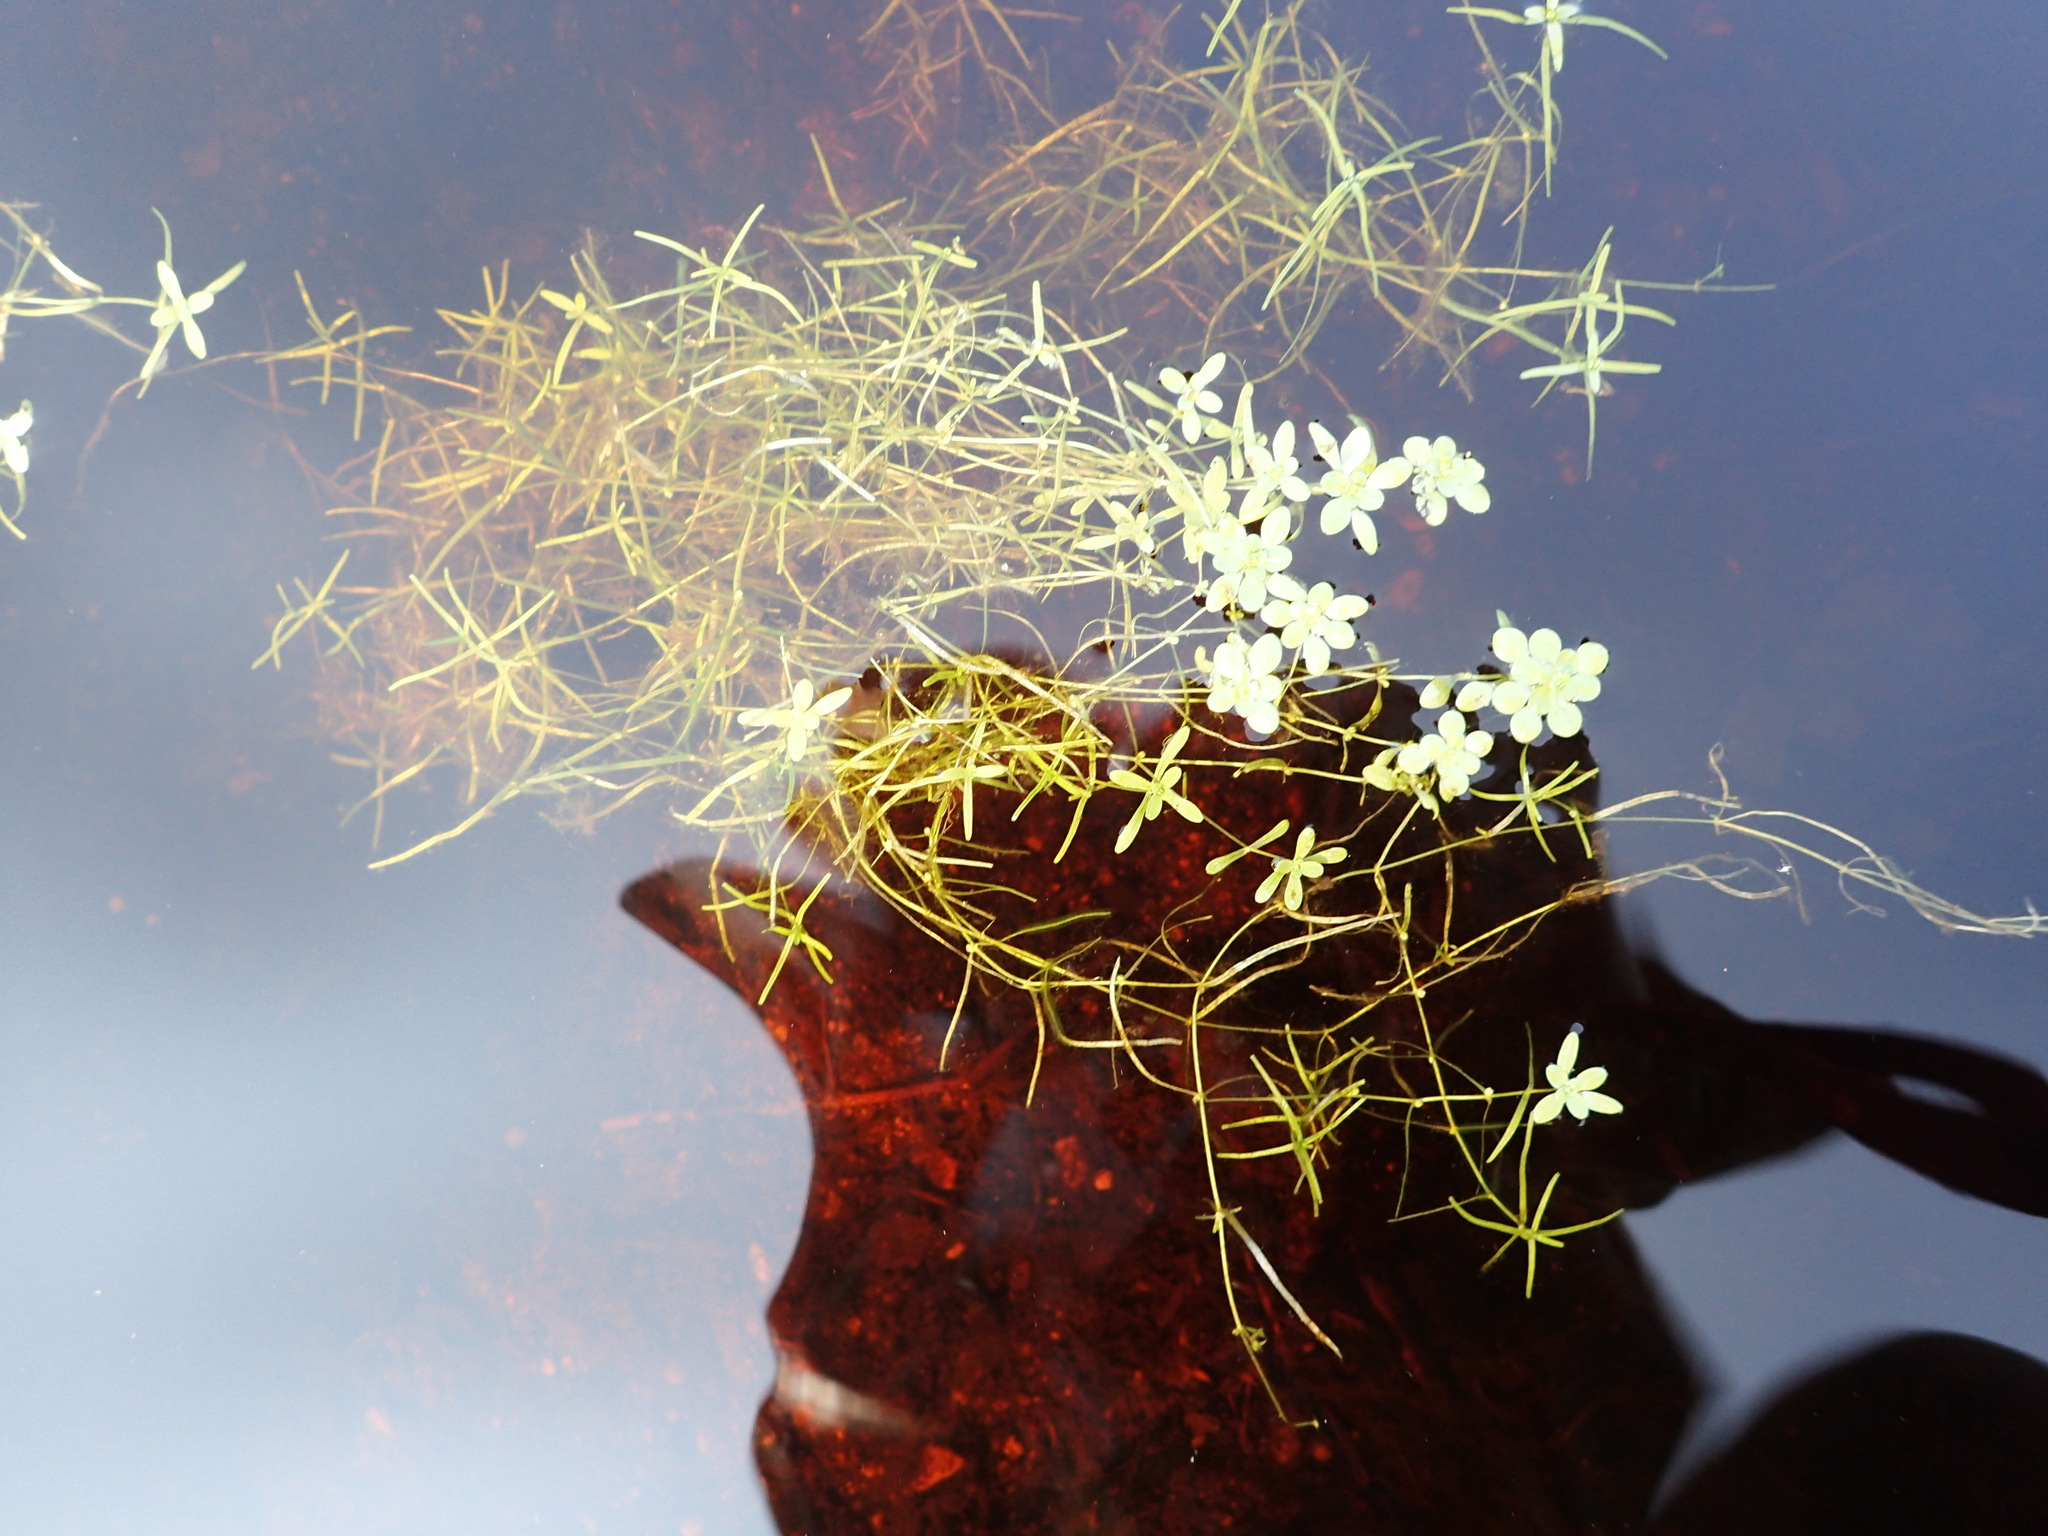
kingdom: Plantae
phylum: Tracheophyta
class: Magnoliopsida
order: Lamiales
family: Plantaginaceae
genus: Callitriche
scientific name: Callitriche palustris
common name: Spring water-starwort
